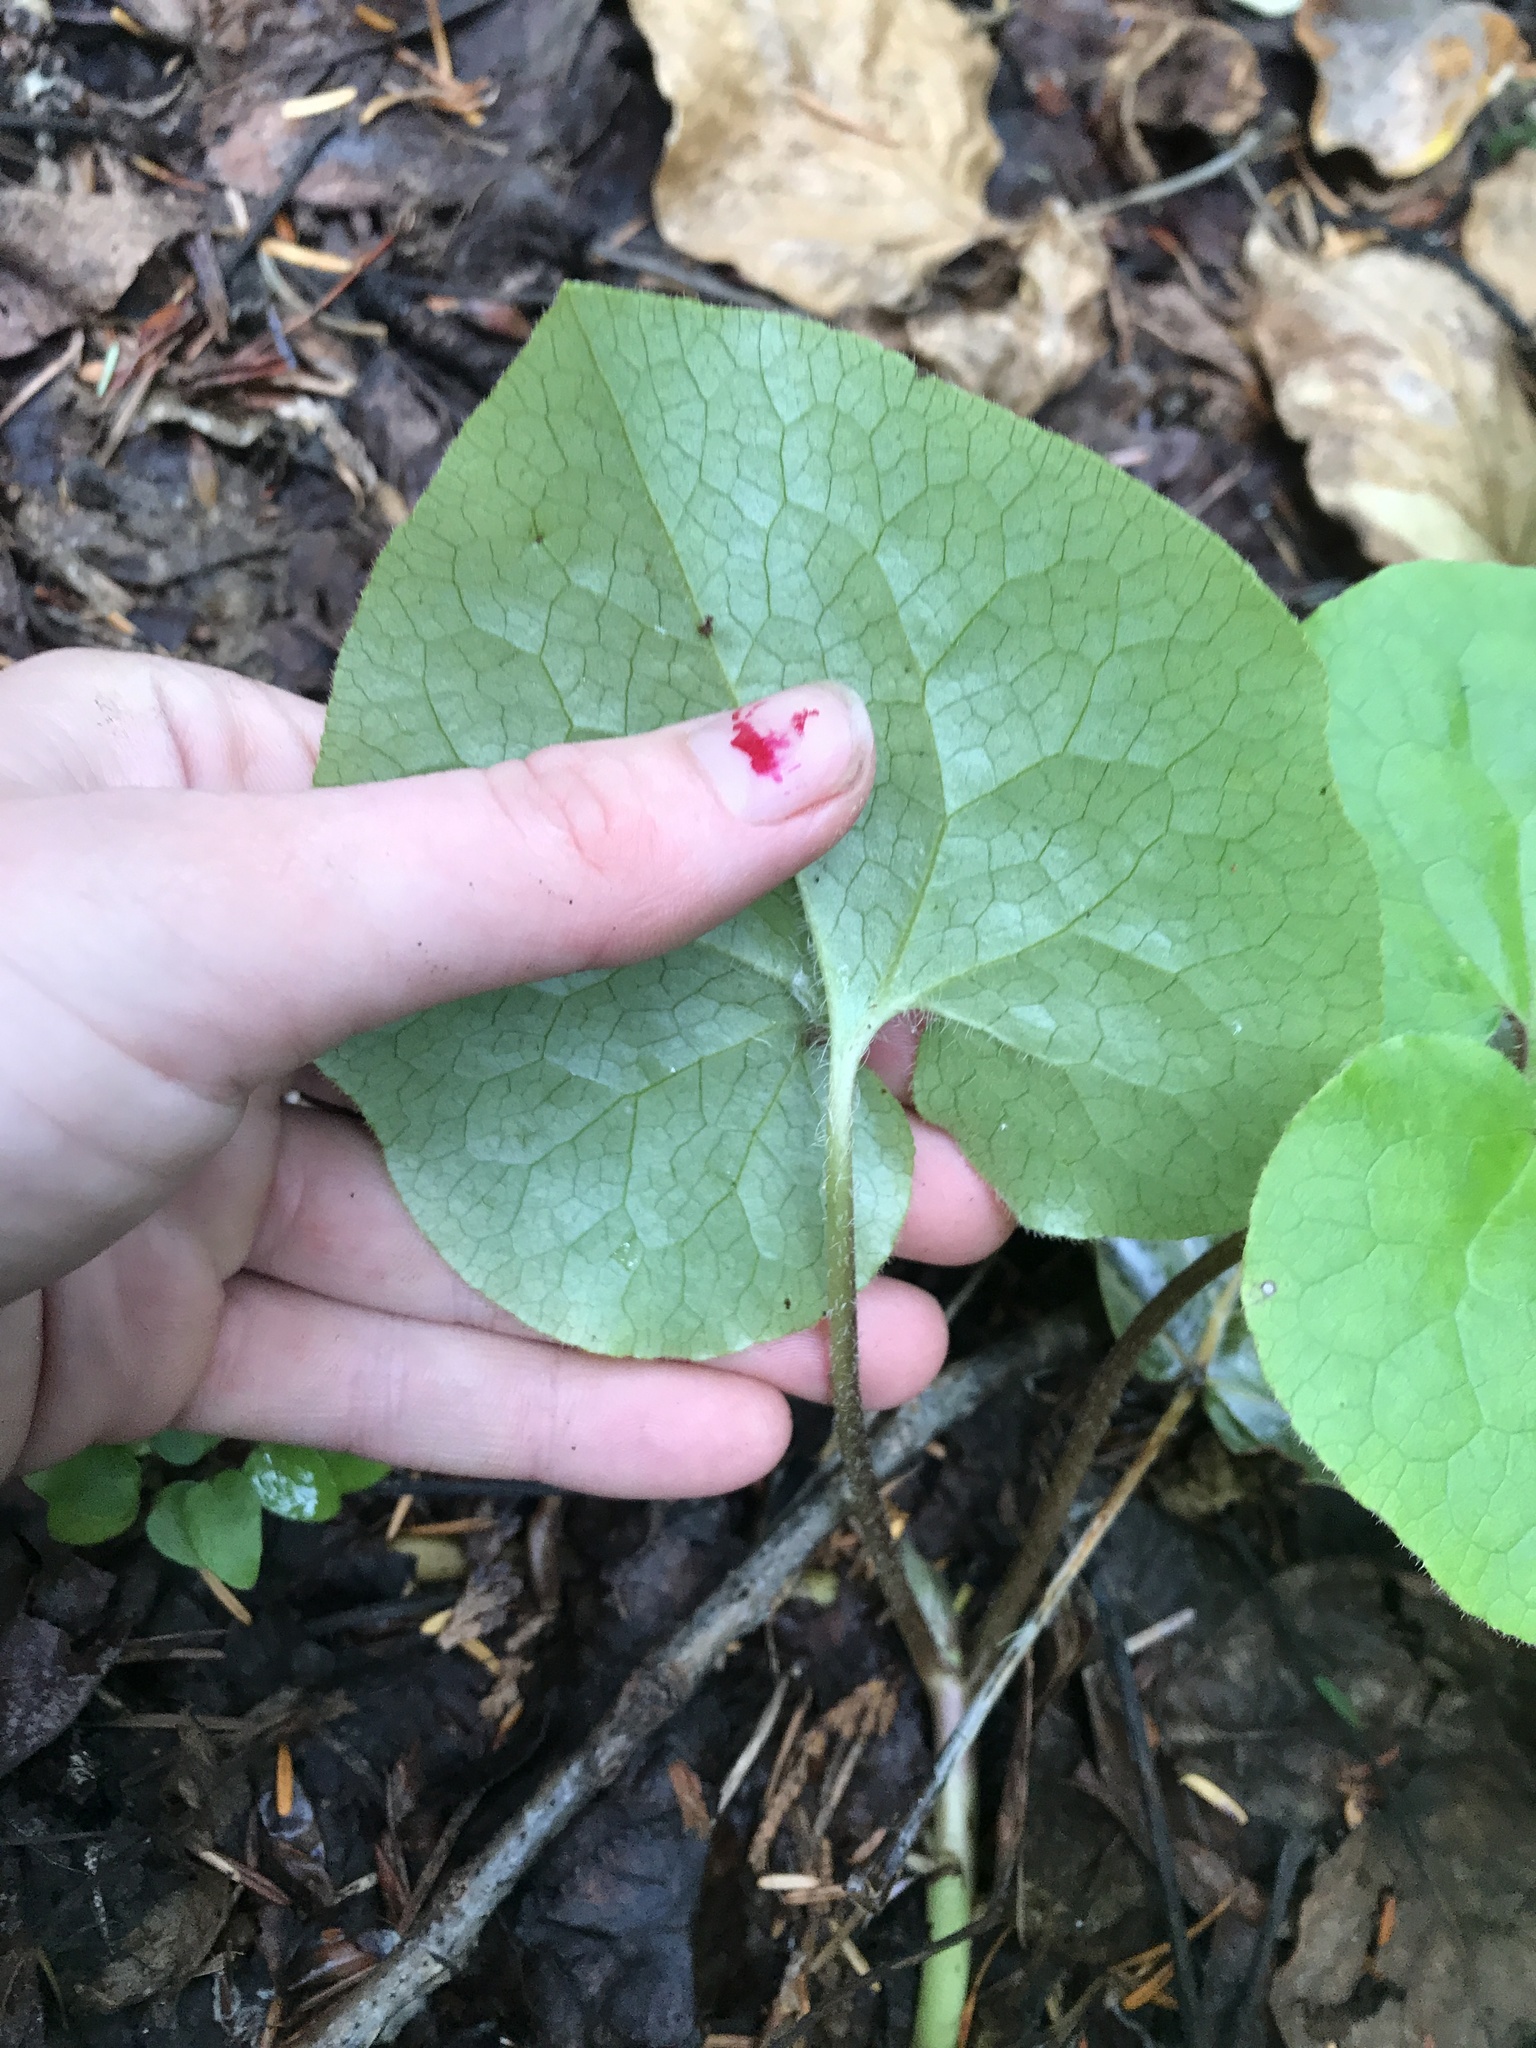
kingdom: Plantae
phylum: Tracheophyta
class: Magnoliopsida
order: Piperales
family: Aristolochiaceae
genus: Asarum
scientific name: Asarum caudatum
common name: Wild ginger
